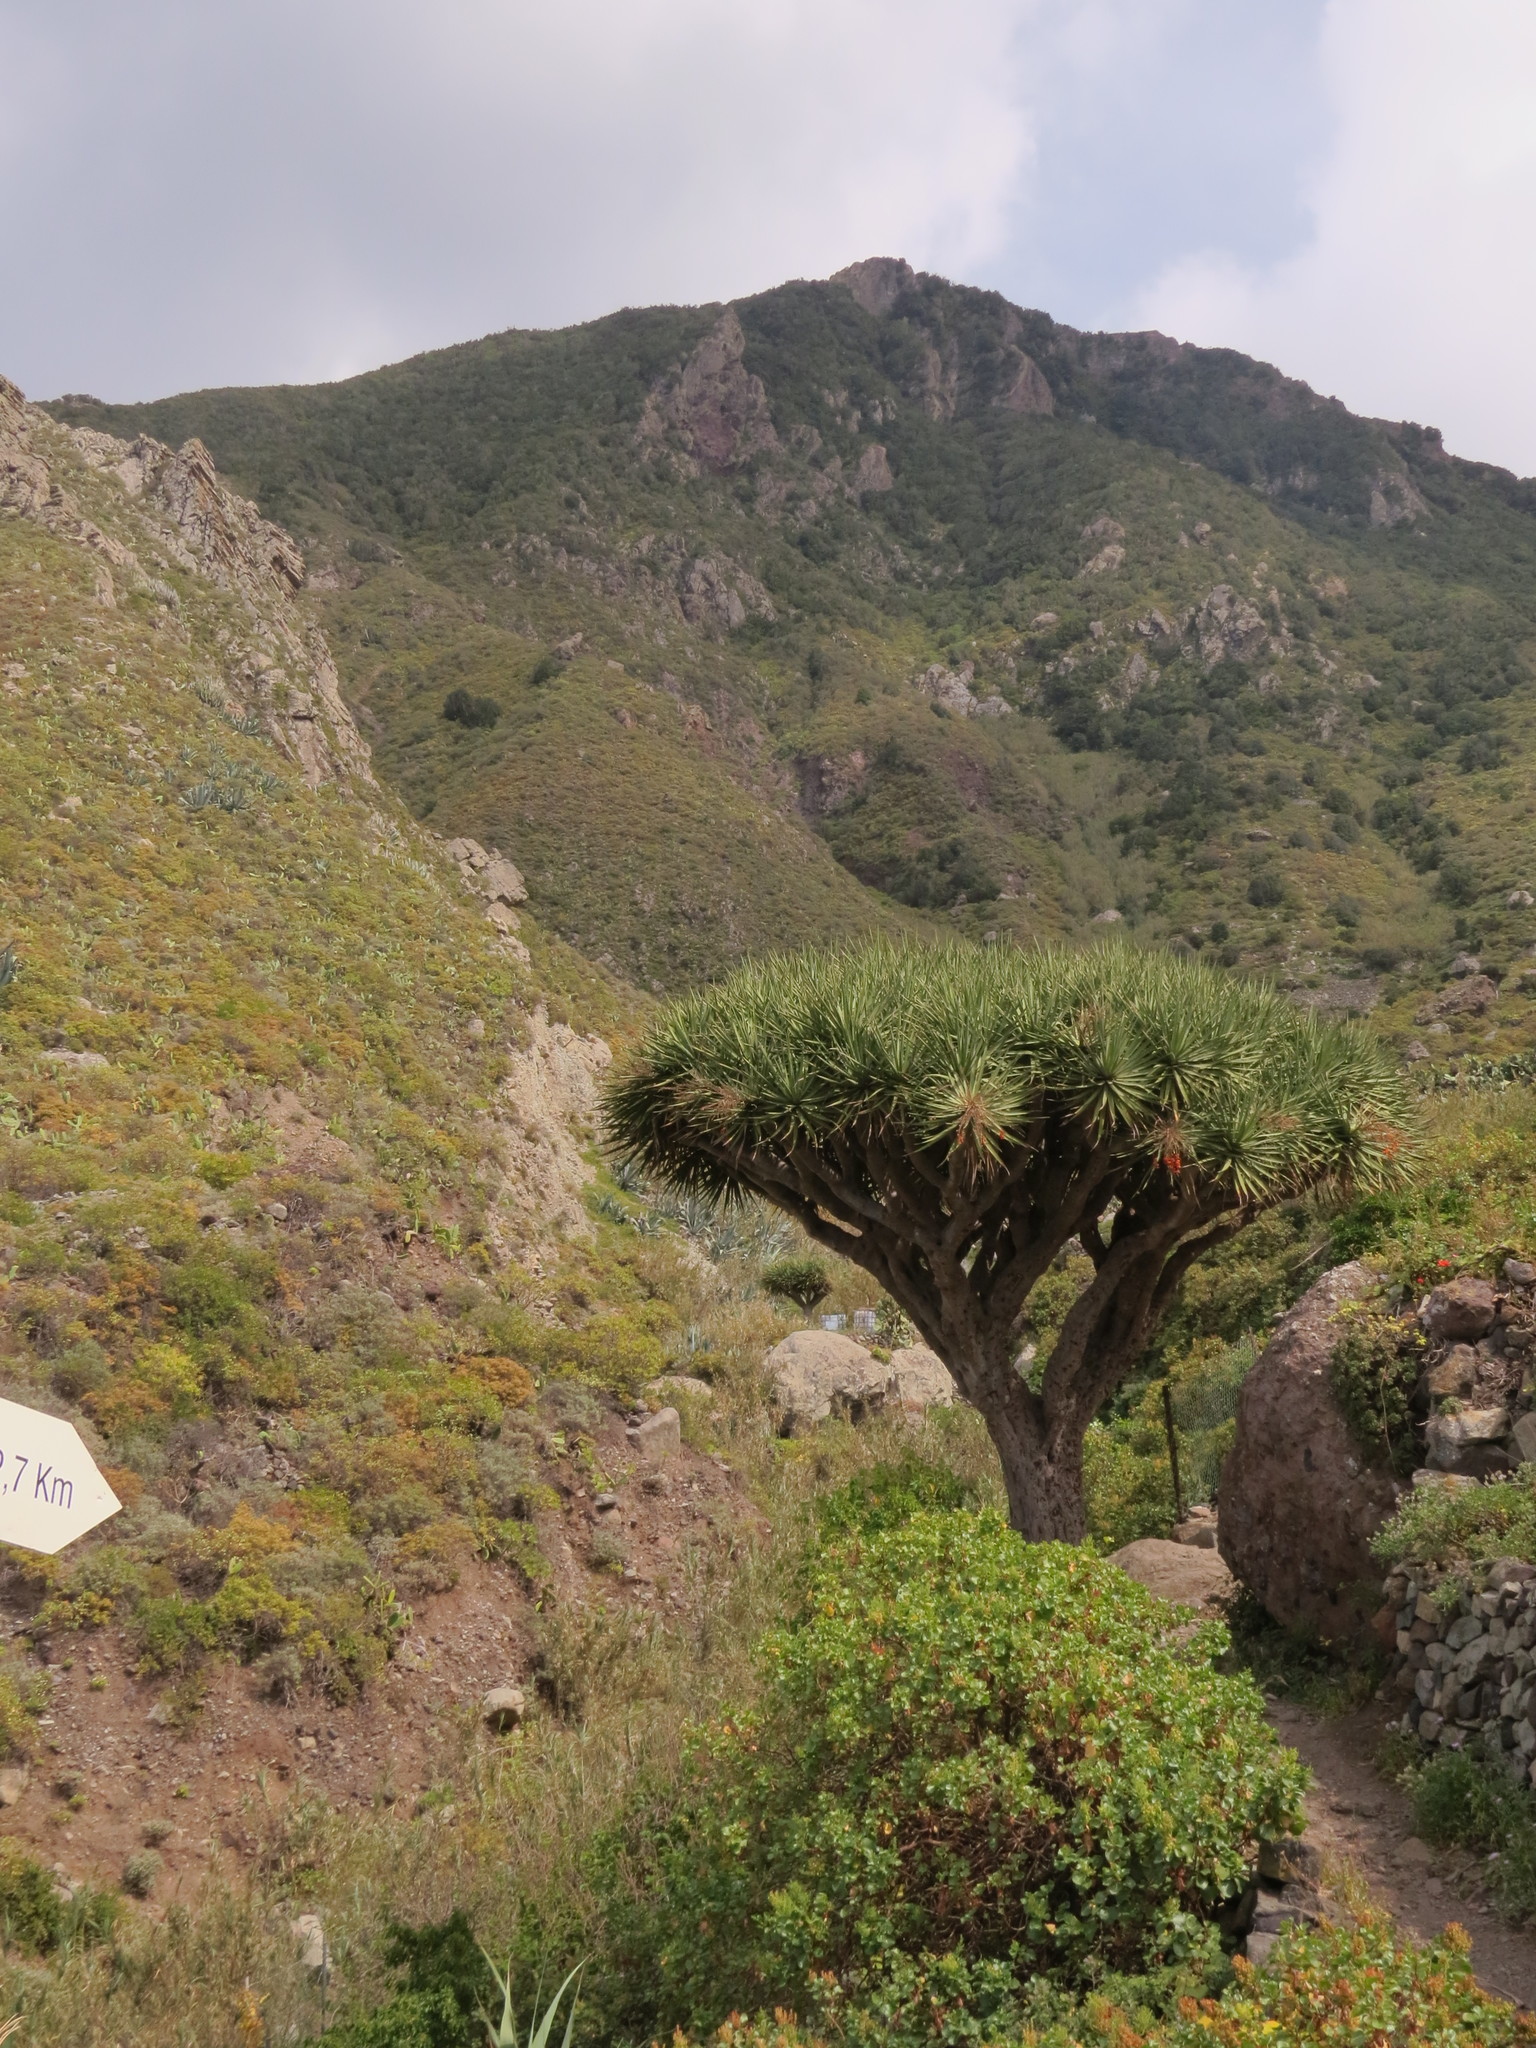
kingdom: Plantae
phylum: Tracheophyta
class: Liliopsida
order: Asparagales
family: Asparagaceae
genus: Dracaena
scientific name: Dracaena draco
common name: Canary island dragon tree
